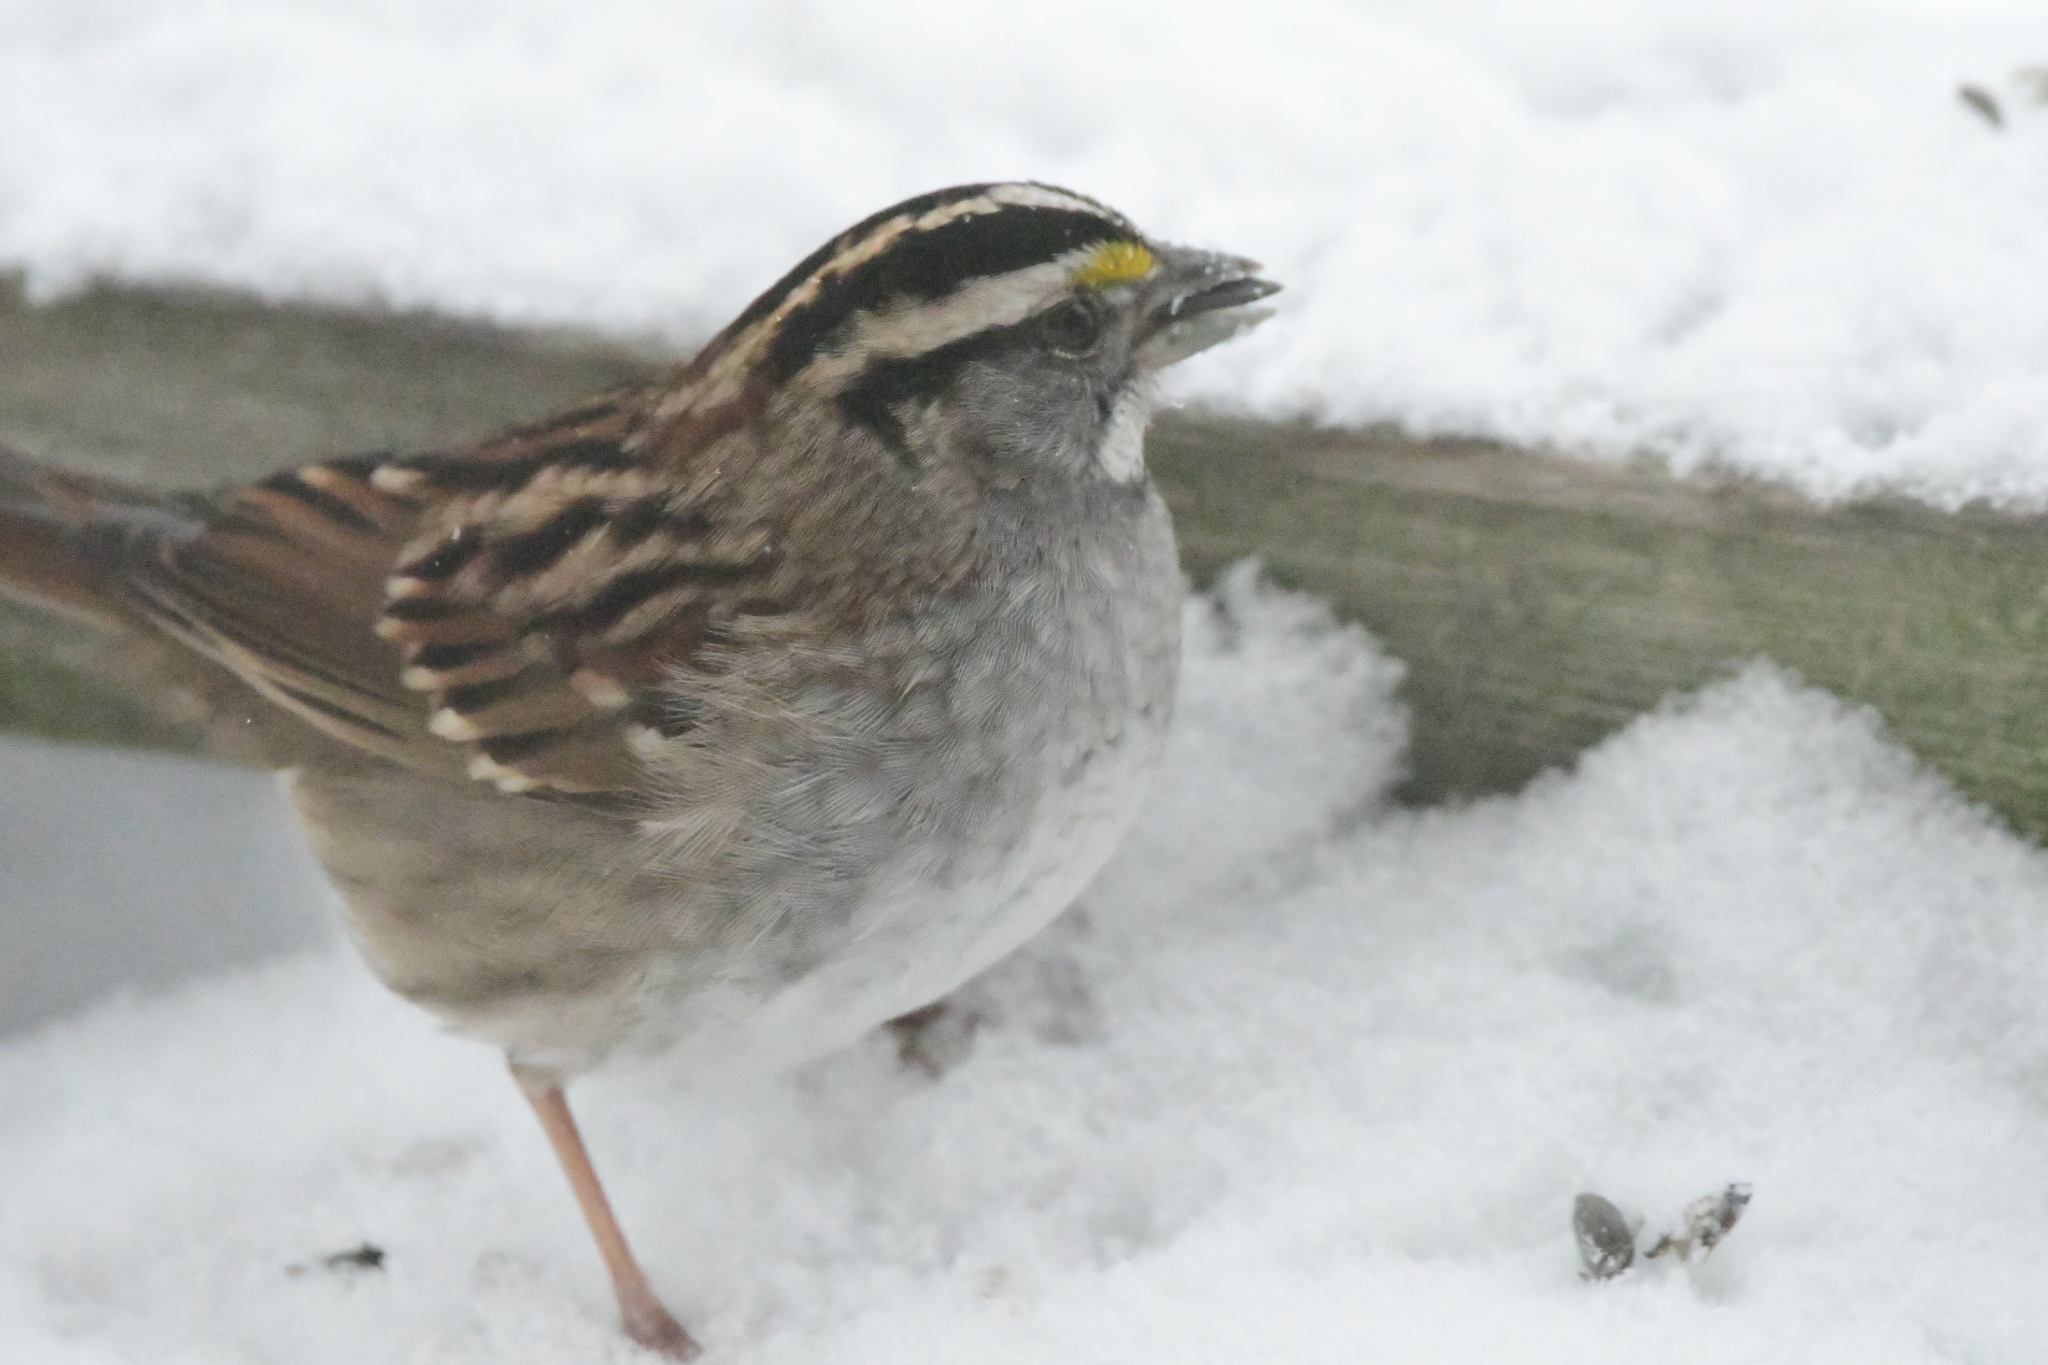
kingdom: Animalia
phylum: Chordata
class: Aves
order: Passeriformes
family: Passerellidae
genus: Zonotrichia
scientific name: Zonotrichia albicollis
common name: White-throated sparrow
